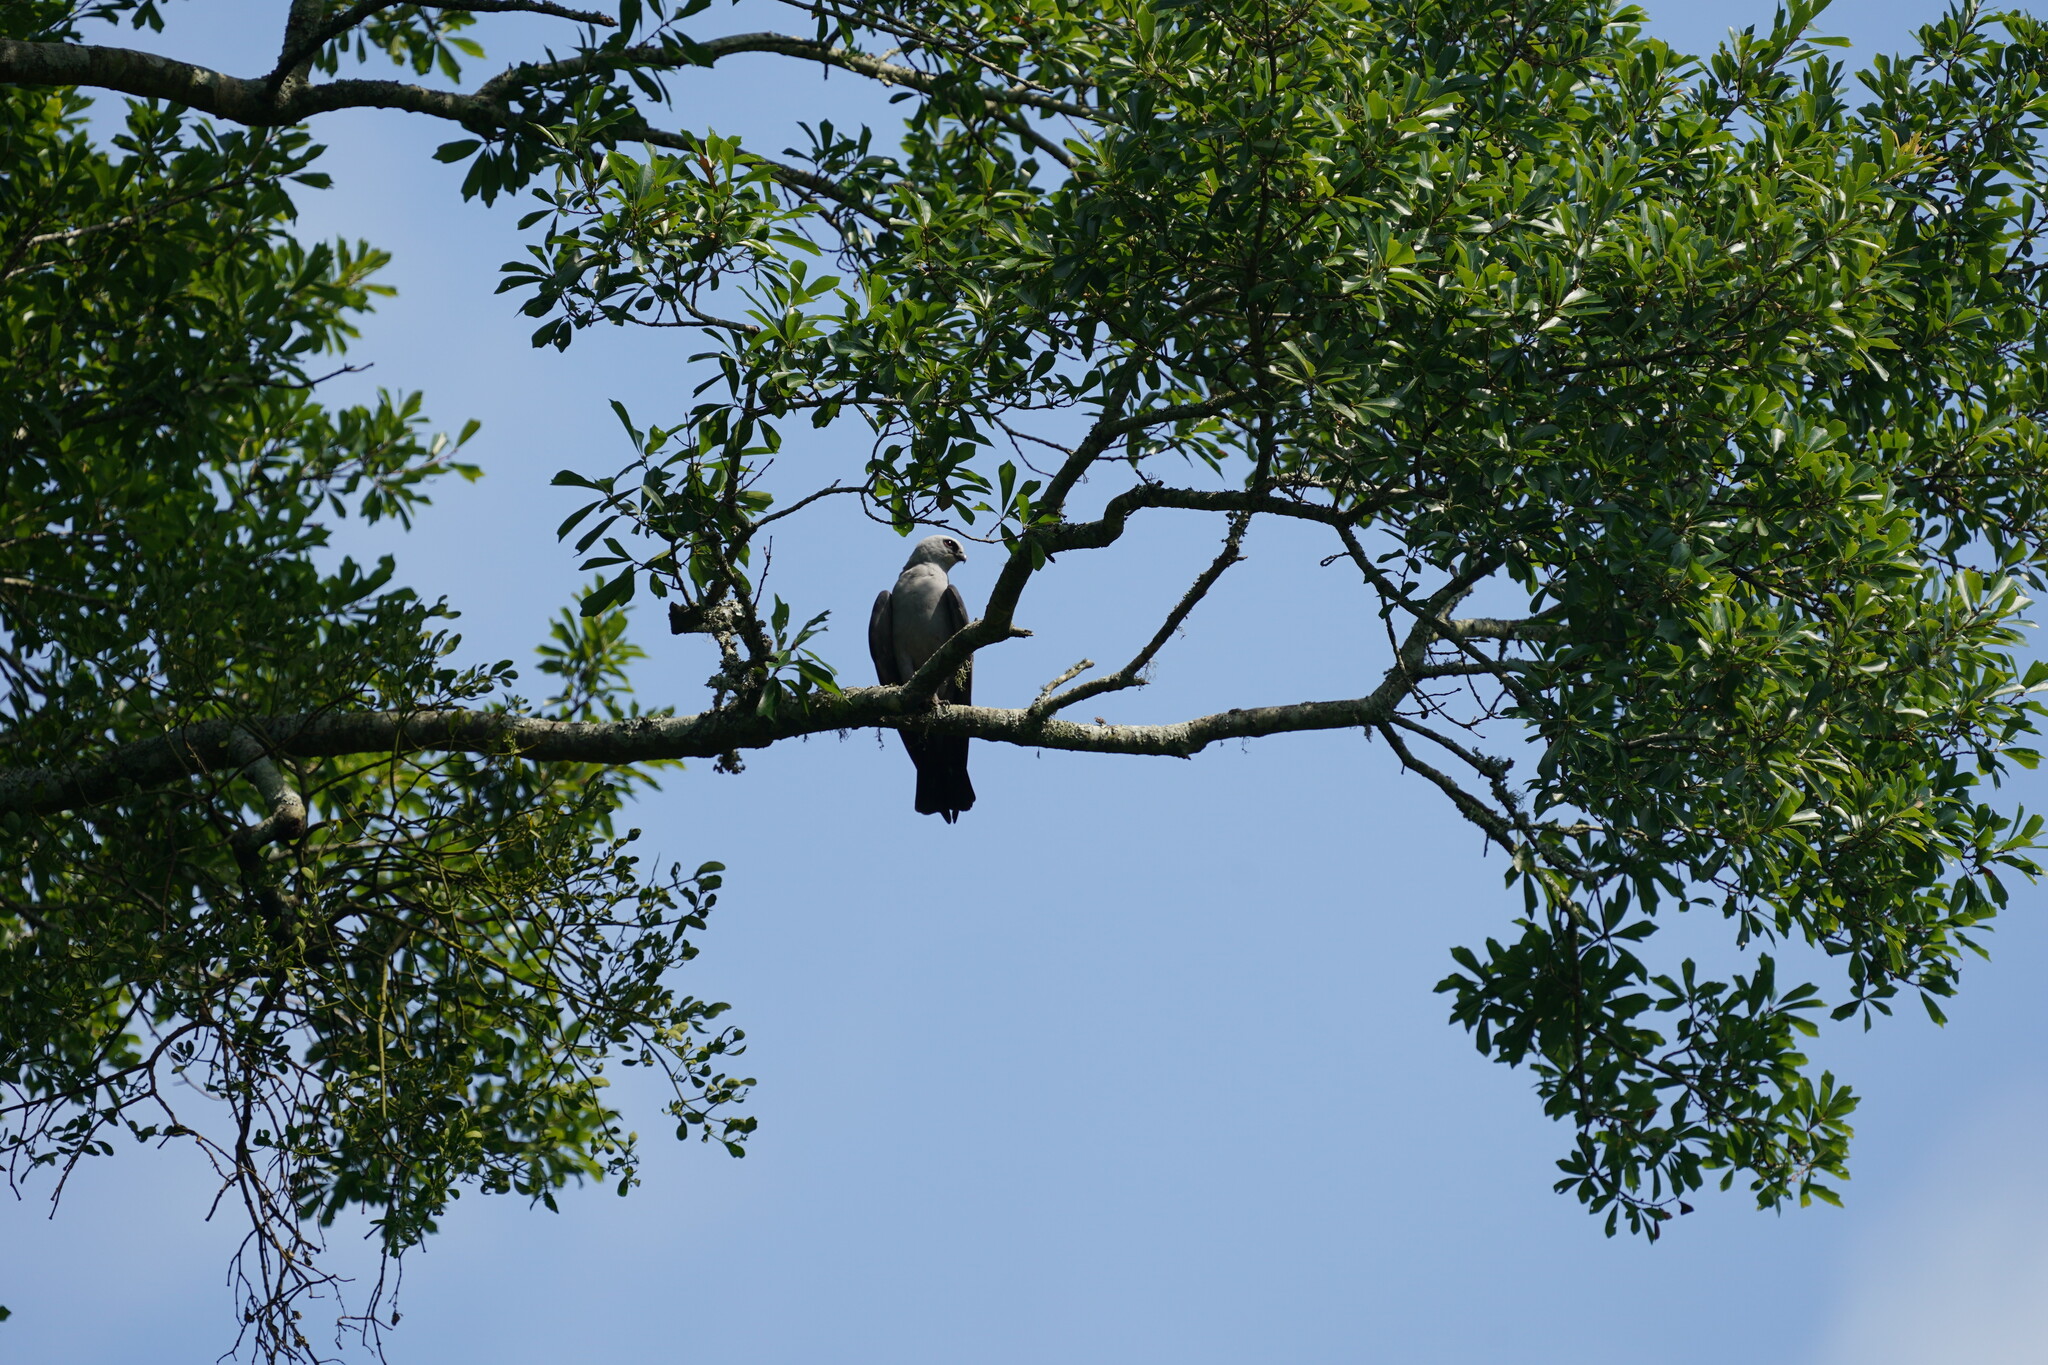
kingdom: Animalia
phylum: Chordata
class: Aves
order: Accipitriformes
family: Accipitridae
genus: Ictinia
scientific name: Ictinia mississippiensis
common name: Mississippi kite
